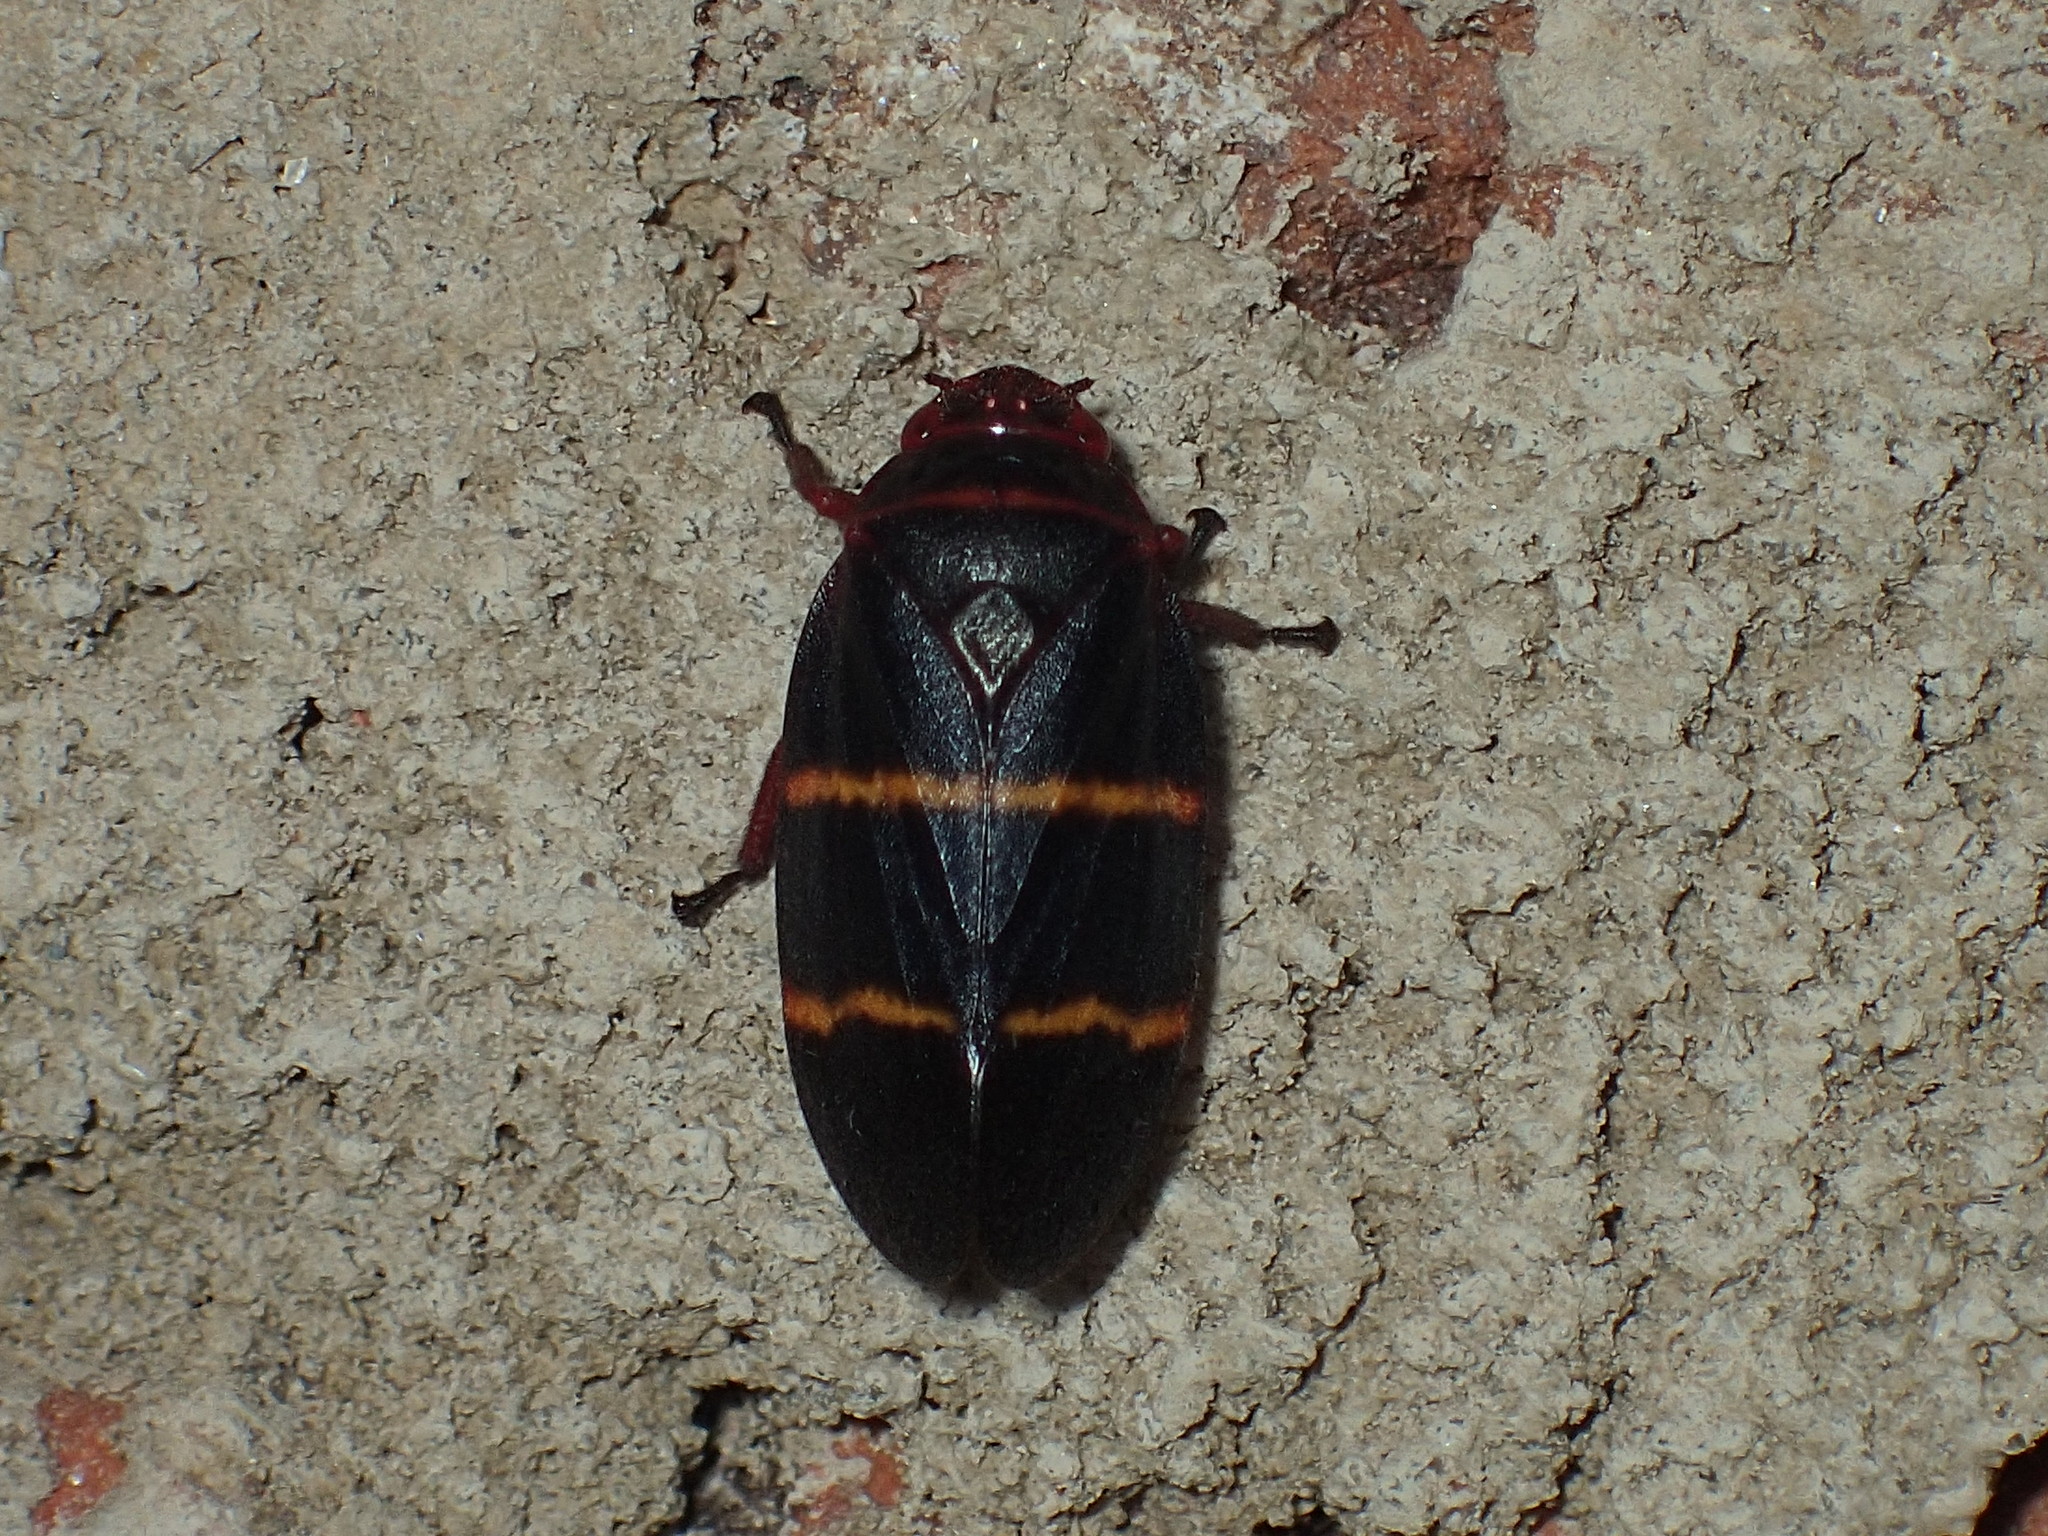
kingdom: Animalia
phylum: Arthropoda
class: Insecta
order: Hemiptera
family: Cercopidae
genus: Prosapia
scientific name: Prosapia bicincta
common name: Twolined spittlebug
